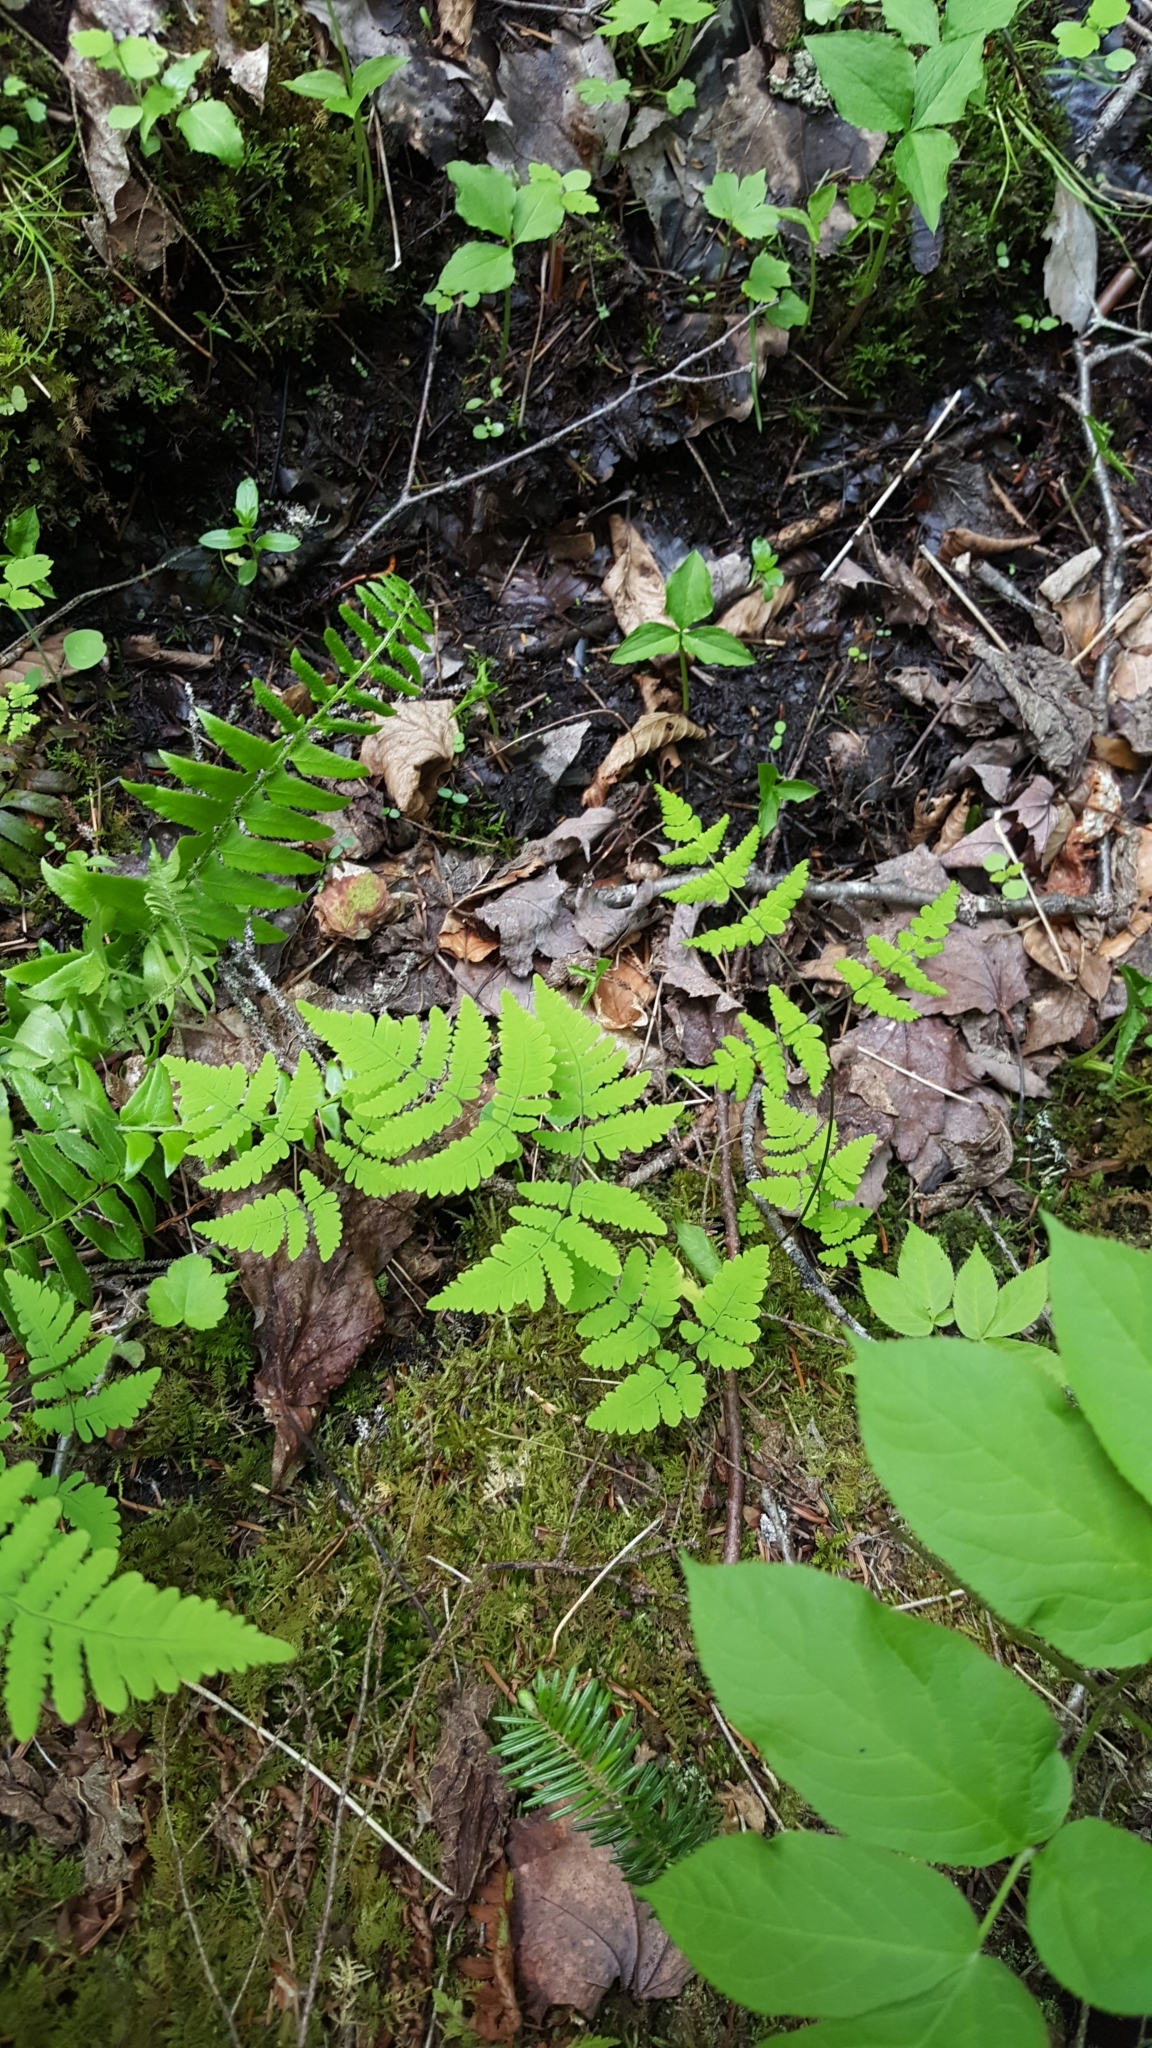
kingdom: Plantae
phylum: Tracheophyta
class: Polypodiopsida
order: Polypodiales
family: Cystopteridaceae
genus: Gymnocarpium
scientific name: Gymnocarpium dryopteris
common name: Oak fern
